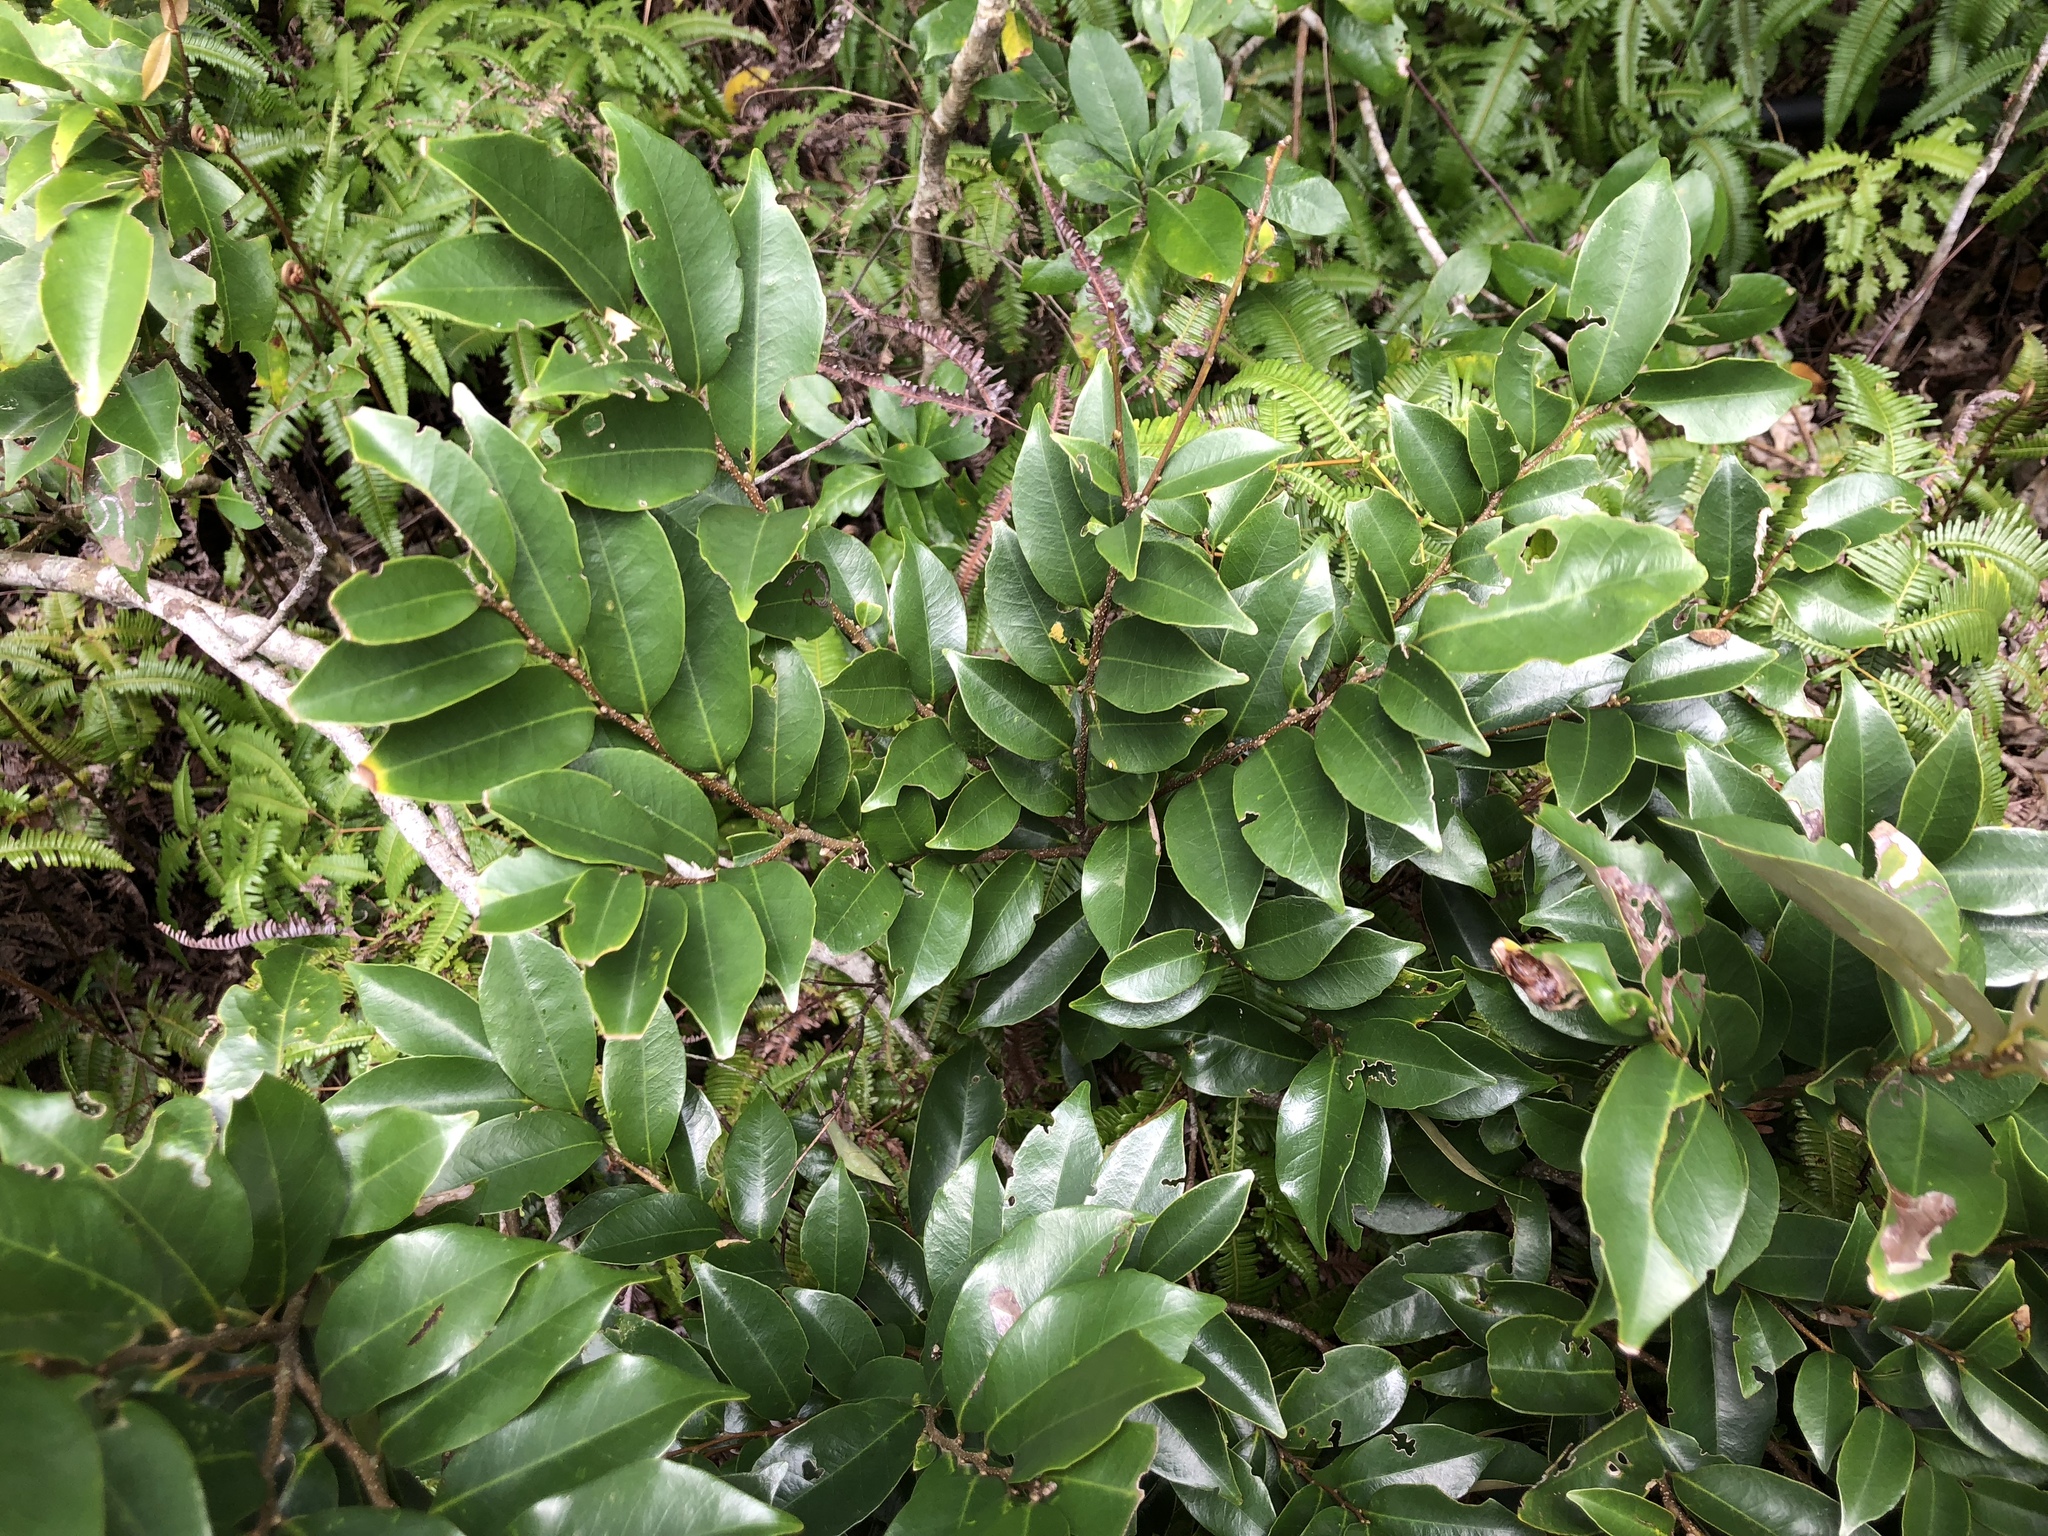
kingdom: Plantae
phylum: Tracheophyta
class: Magnoliopsida
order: Fagales
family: Fagaceae
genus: Castanopsis
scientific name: Castanopsis carlesii
